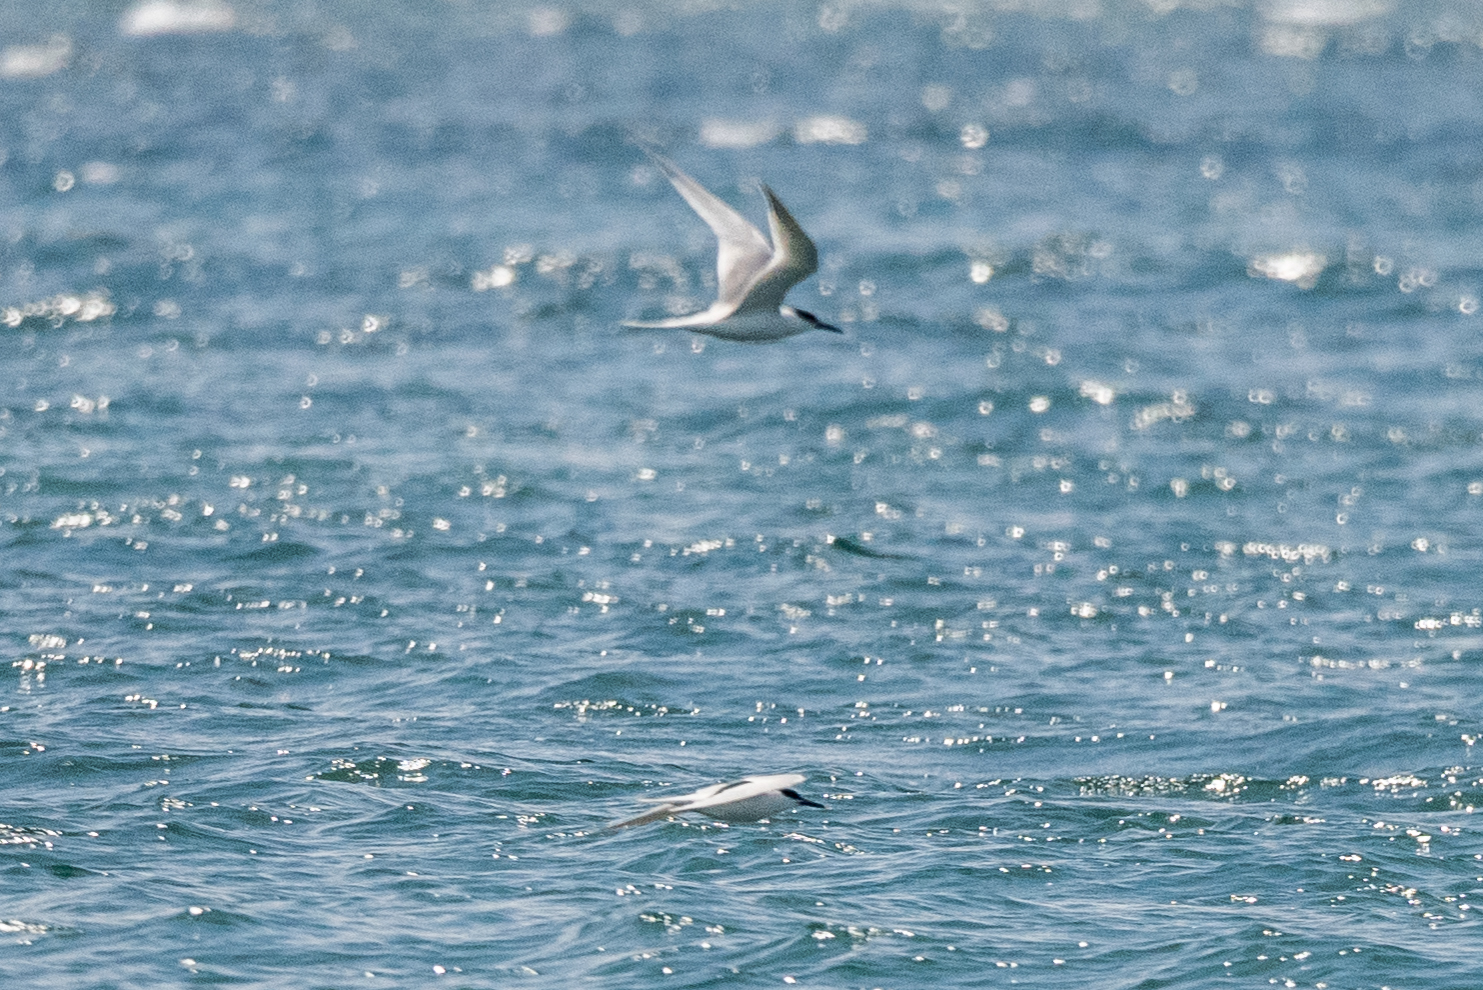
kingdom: Animalia
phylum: Chordata
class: Aves
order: Charadriiformes
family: Laridae
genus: Thalasseus
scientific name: Thalasseus sandvicensis
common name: Sandwich tern
